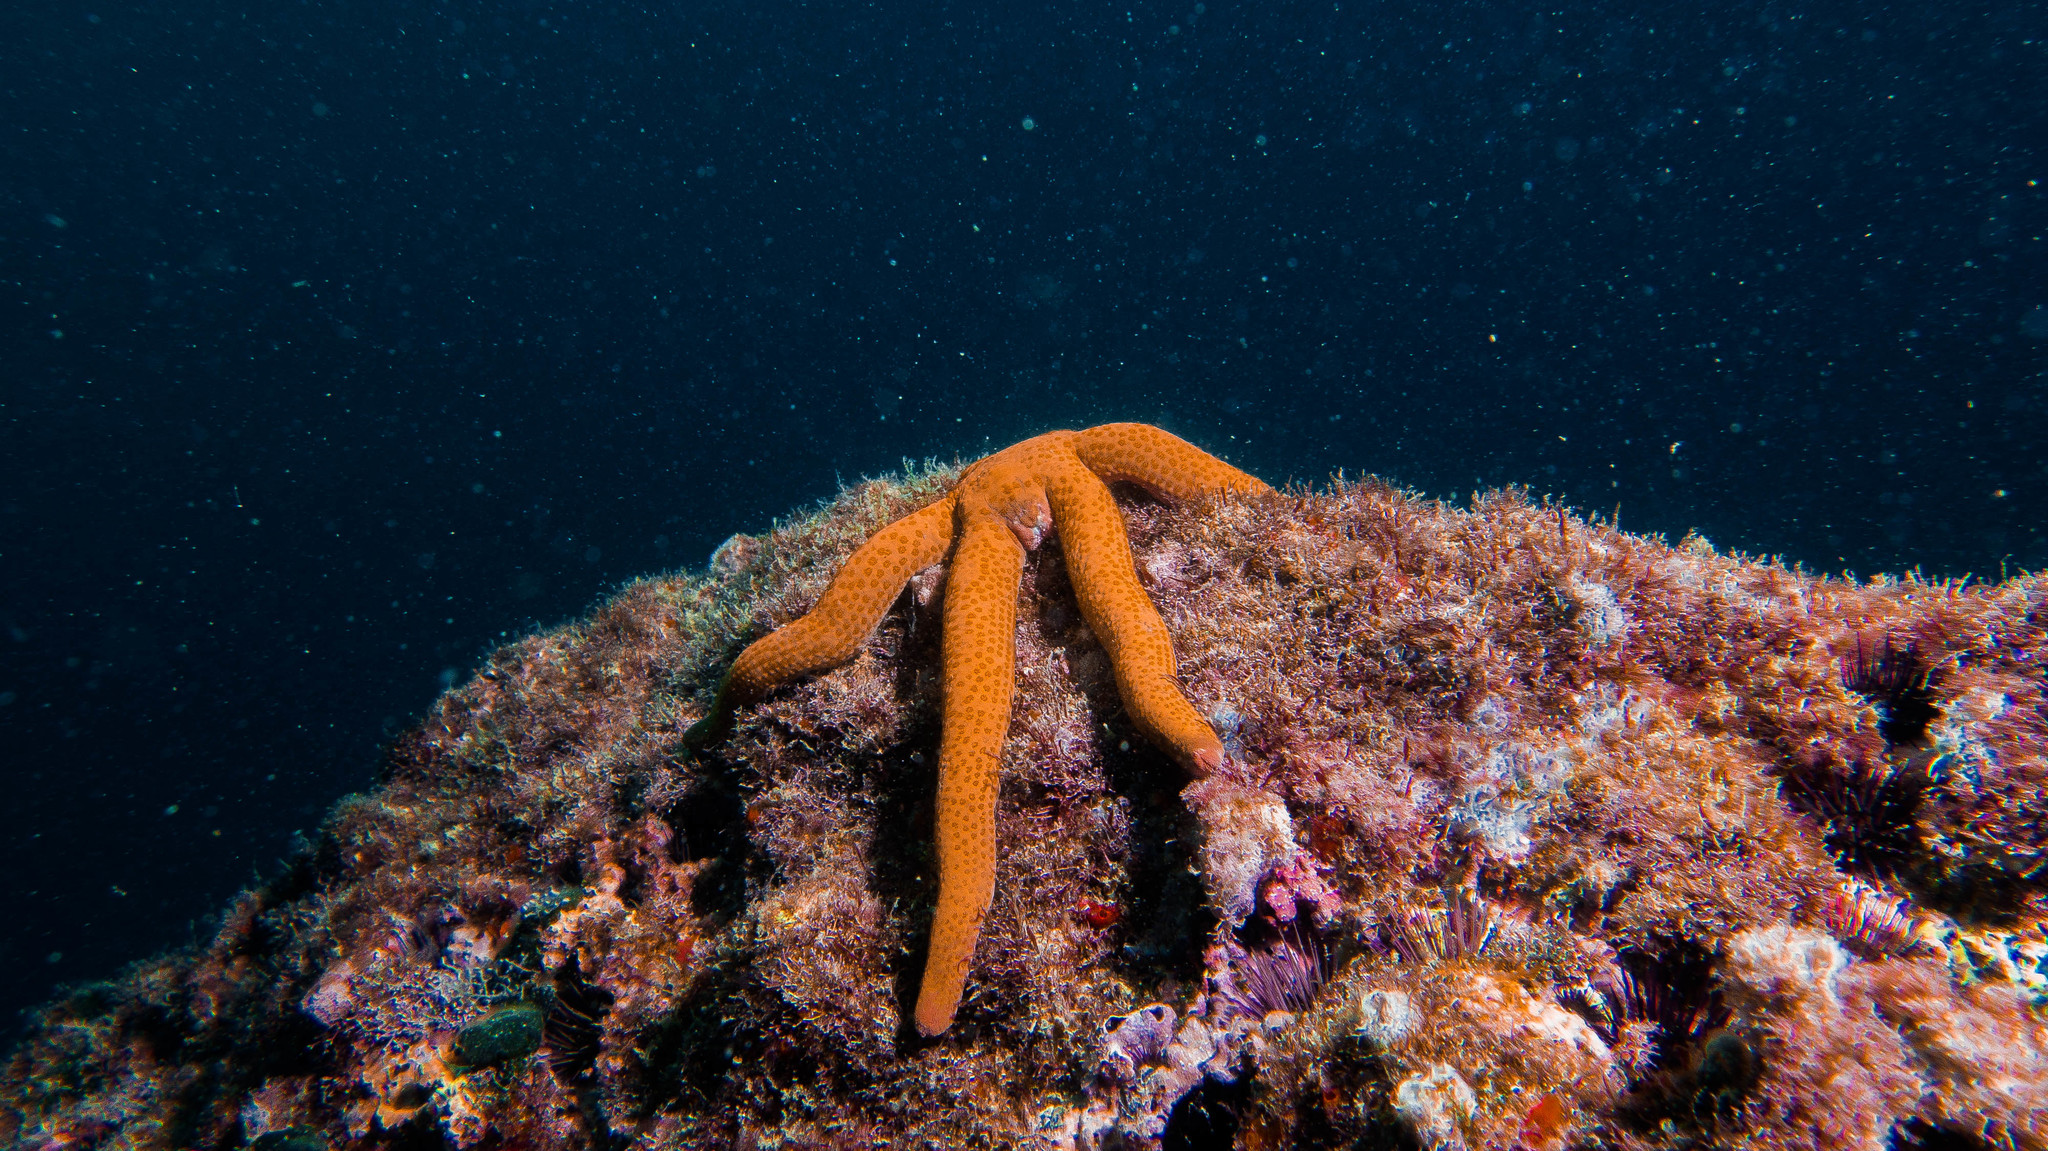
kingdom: Animalia
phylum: Echinodermata
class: Asteroidea
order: Valvatida
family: Ophidiasteridae
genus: Linckia
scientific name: Linckia guildingi
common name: Common comet star
